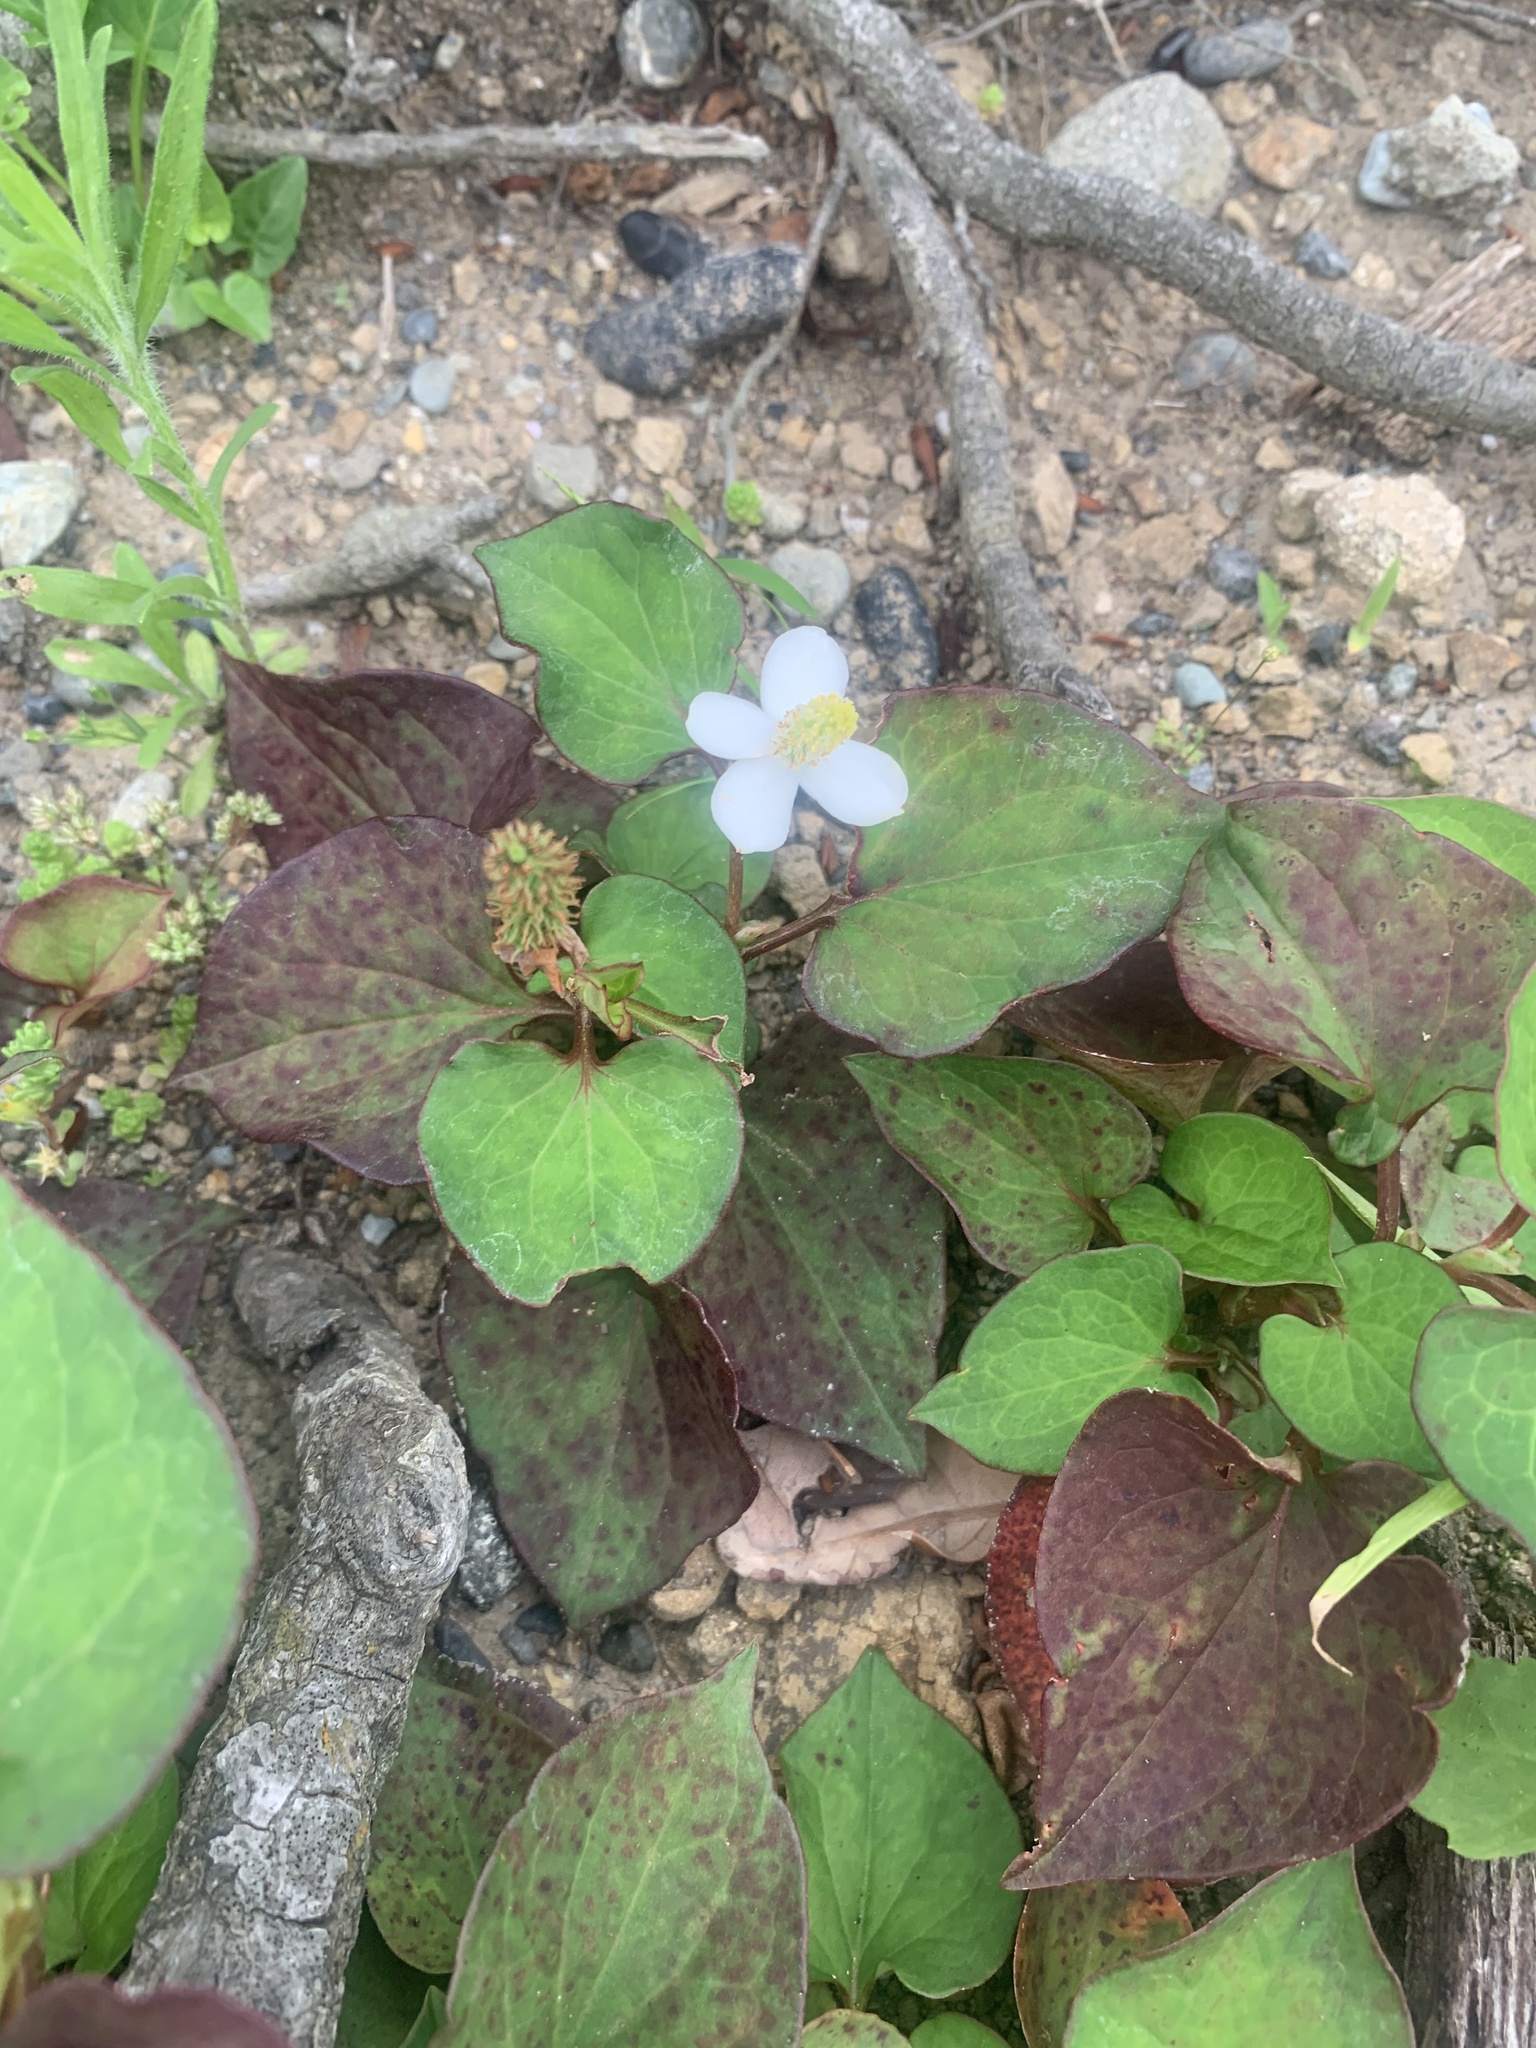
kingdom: Plantae
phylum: Tracheophyta
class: Magnoliopsida
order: Piperales
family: Saururaceae
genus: Houttuynia
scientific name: Houttuynia cordata
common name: Chameleon
